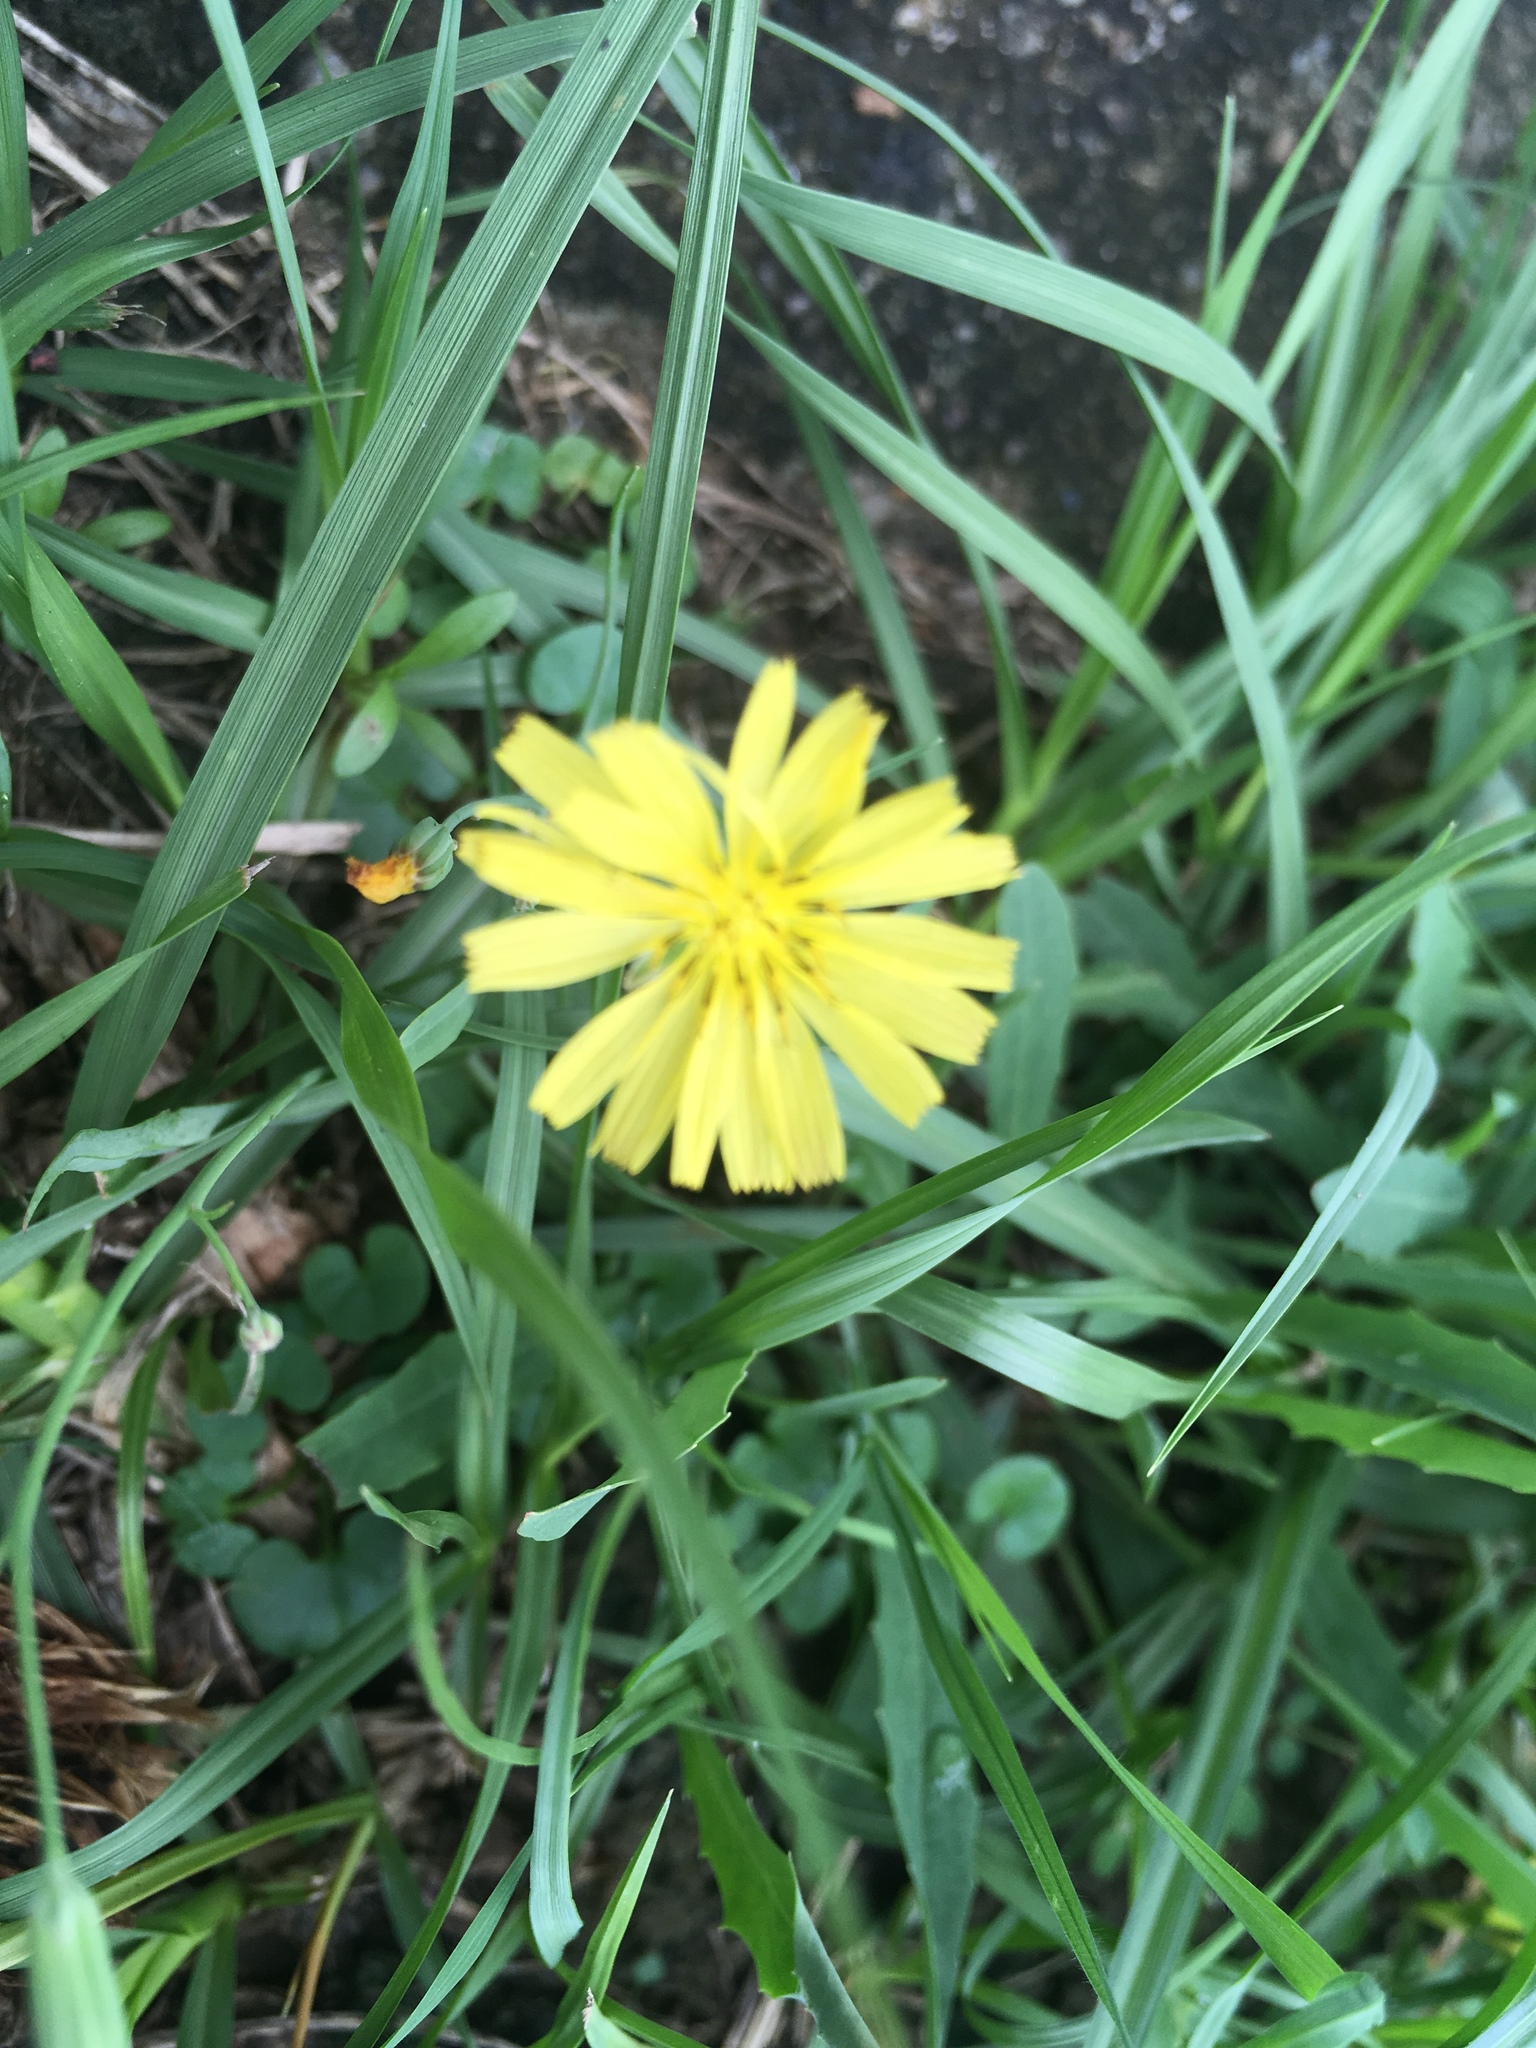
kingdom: Plantae
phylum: Tracheophyta
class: Magnoliopsida
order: Asterales
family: Asteraceae
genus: Ixeris
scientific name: Ixeris chinensis
